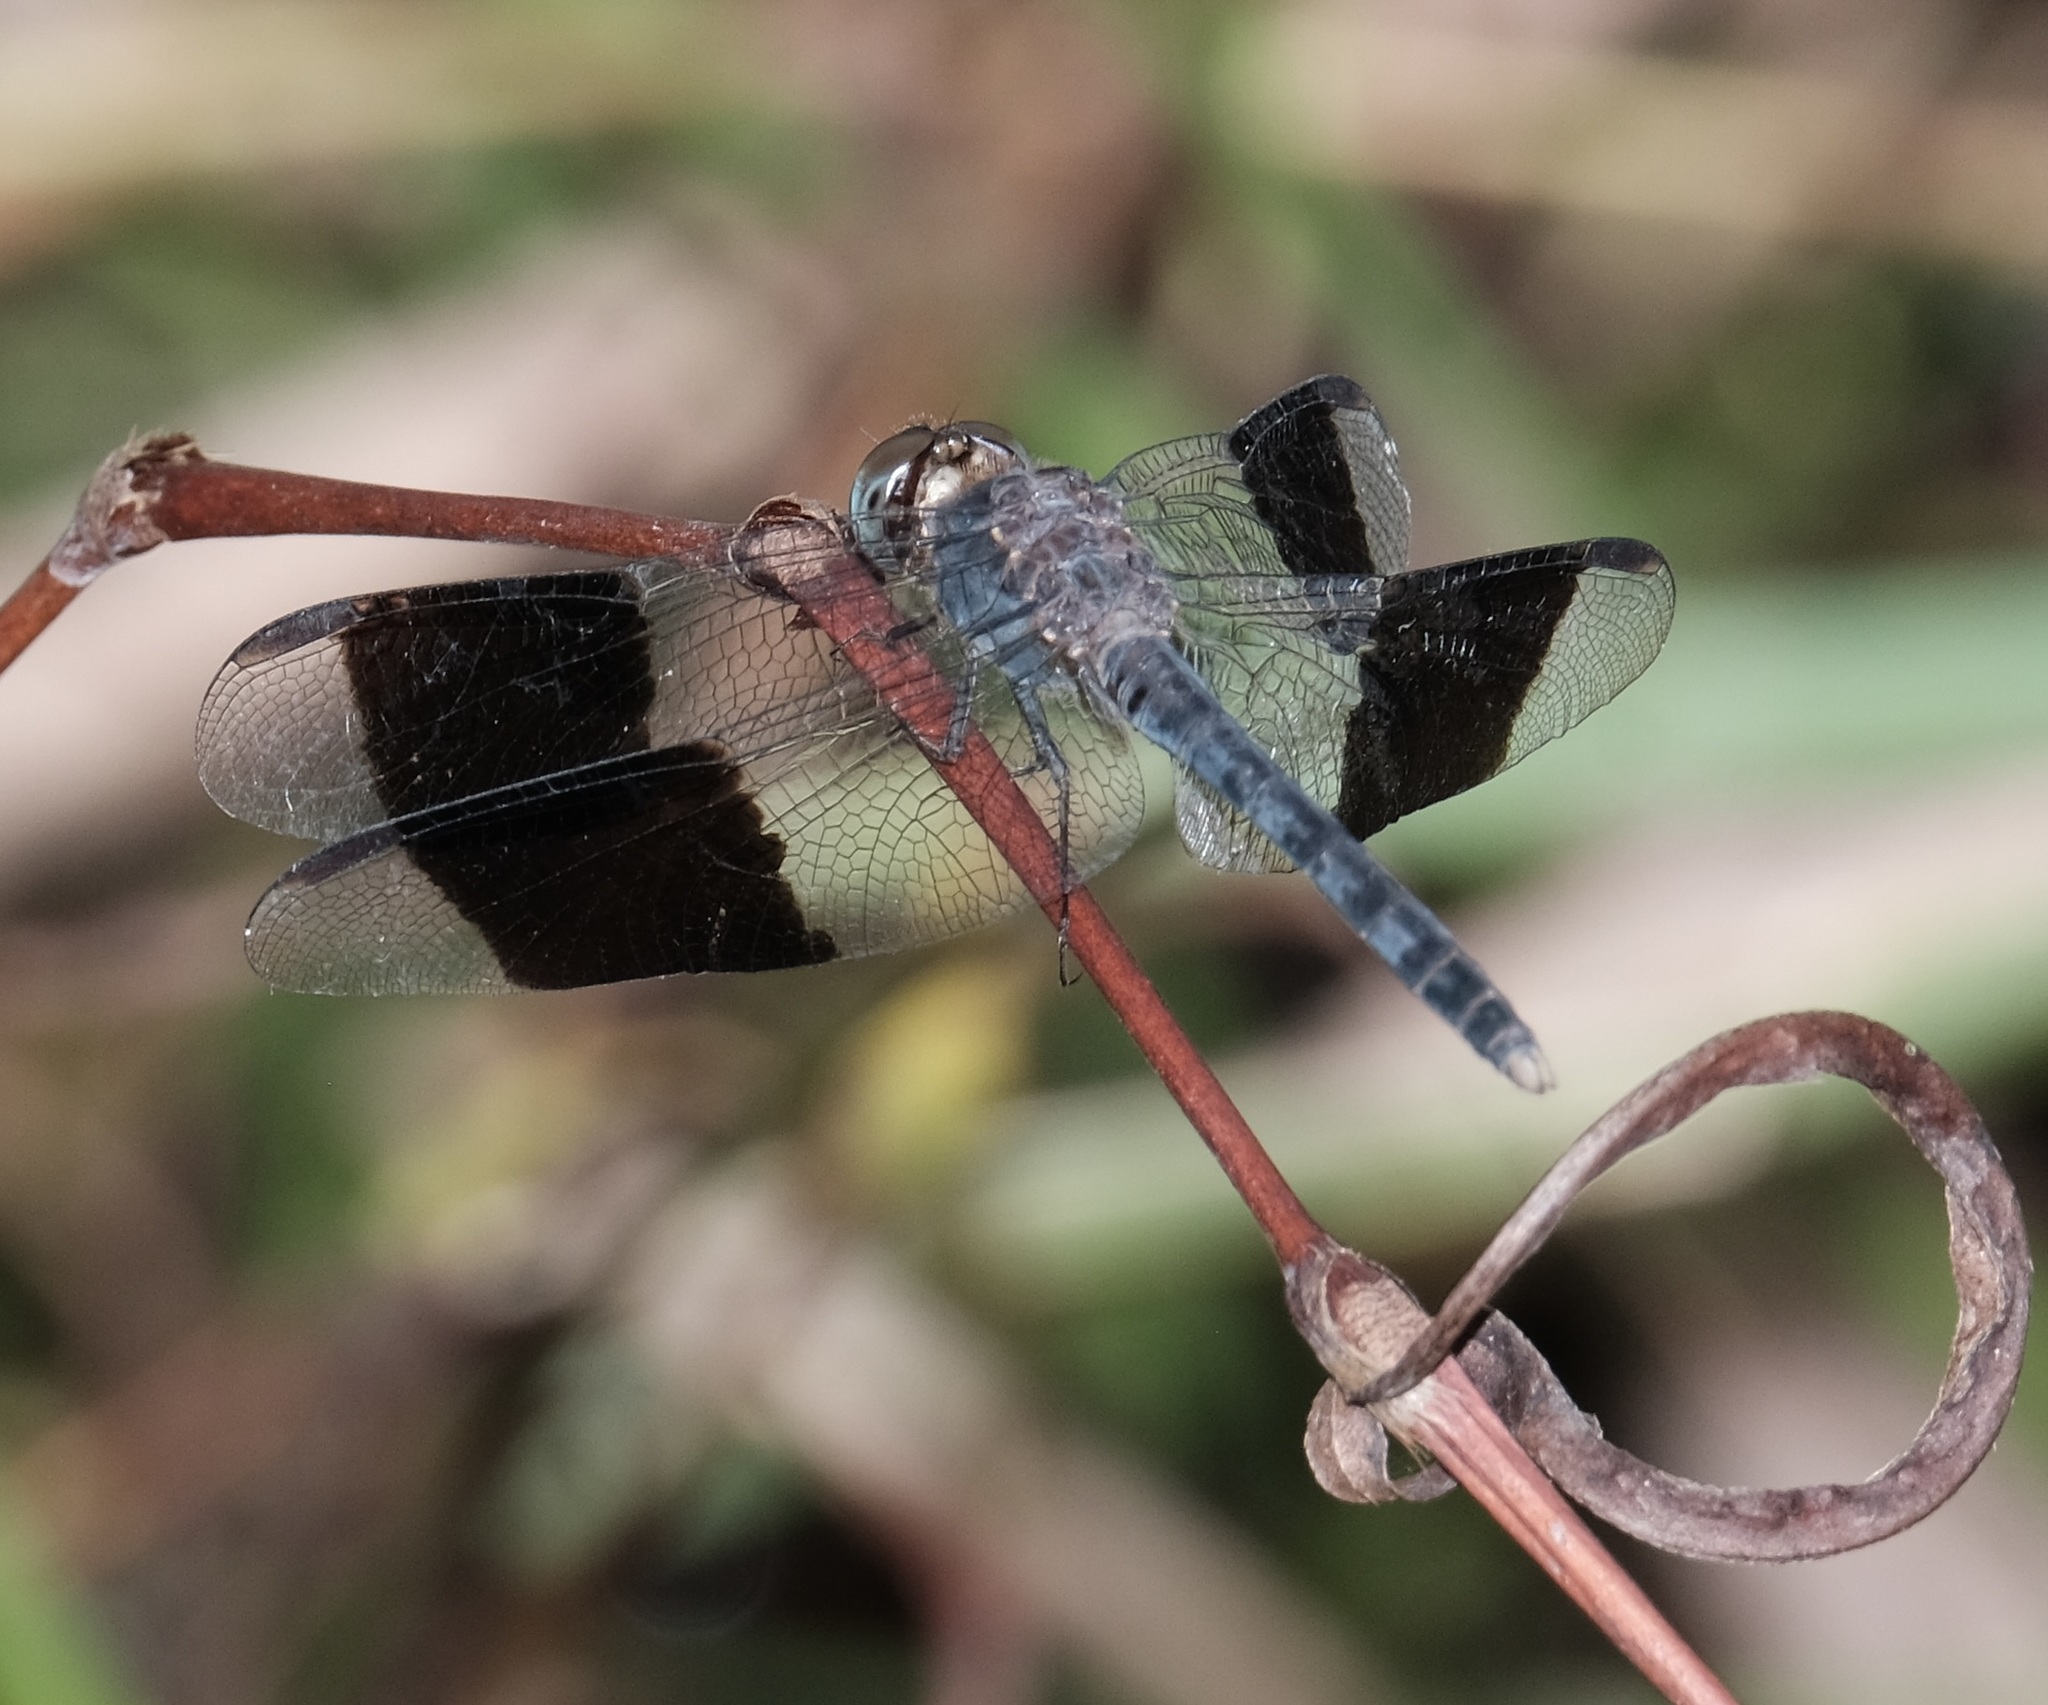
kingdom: Animalia
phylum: Arthropoda
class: Insecta
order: Odonata
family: Libellulidae
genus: Erythrodiplax
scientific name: Erythrodiplax umbrata
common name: Band-winged dragonlet
